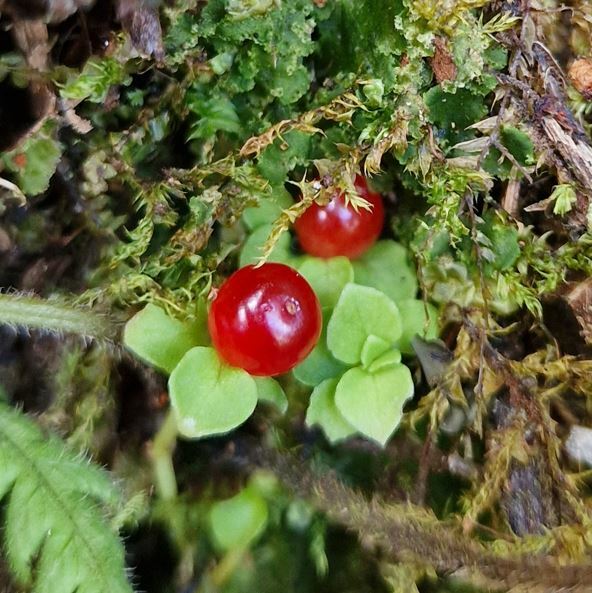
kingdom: Plantae
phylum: Tracheophyta
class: Magnoliopsida
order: Gentianales
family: Rubiaceae
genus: Nertera
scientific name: Nertera granadensis
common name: Beadplant
